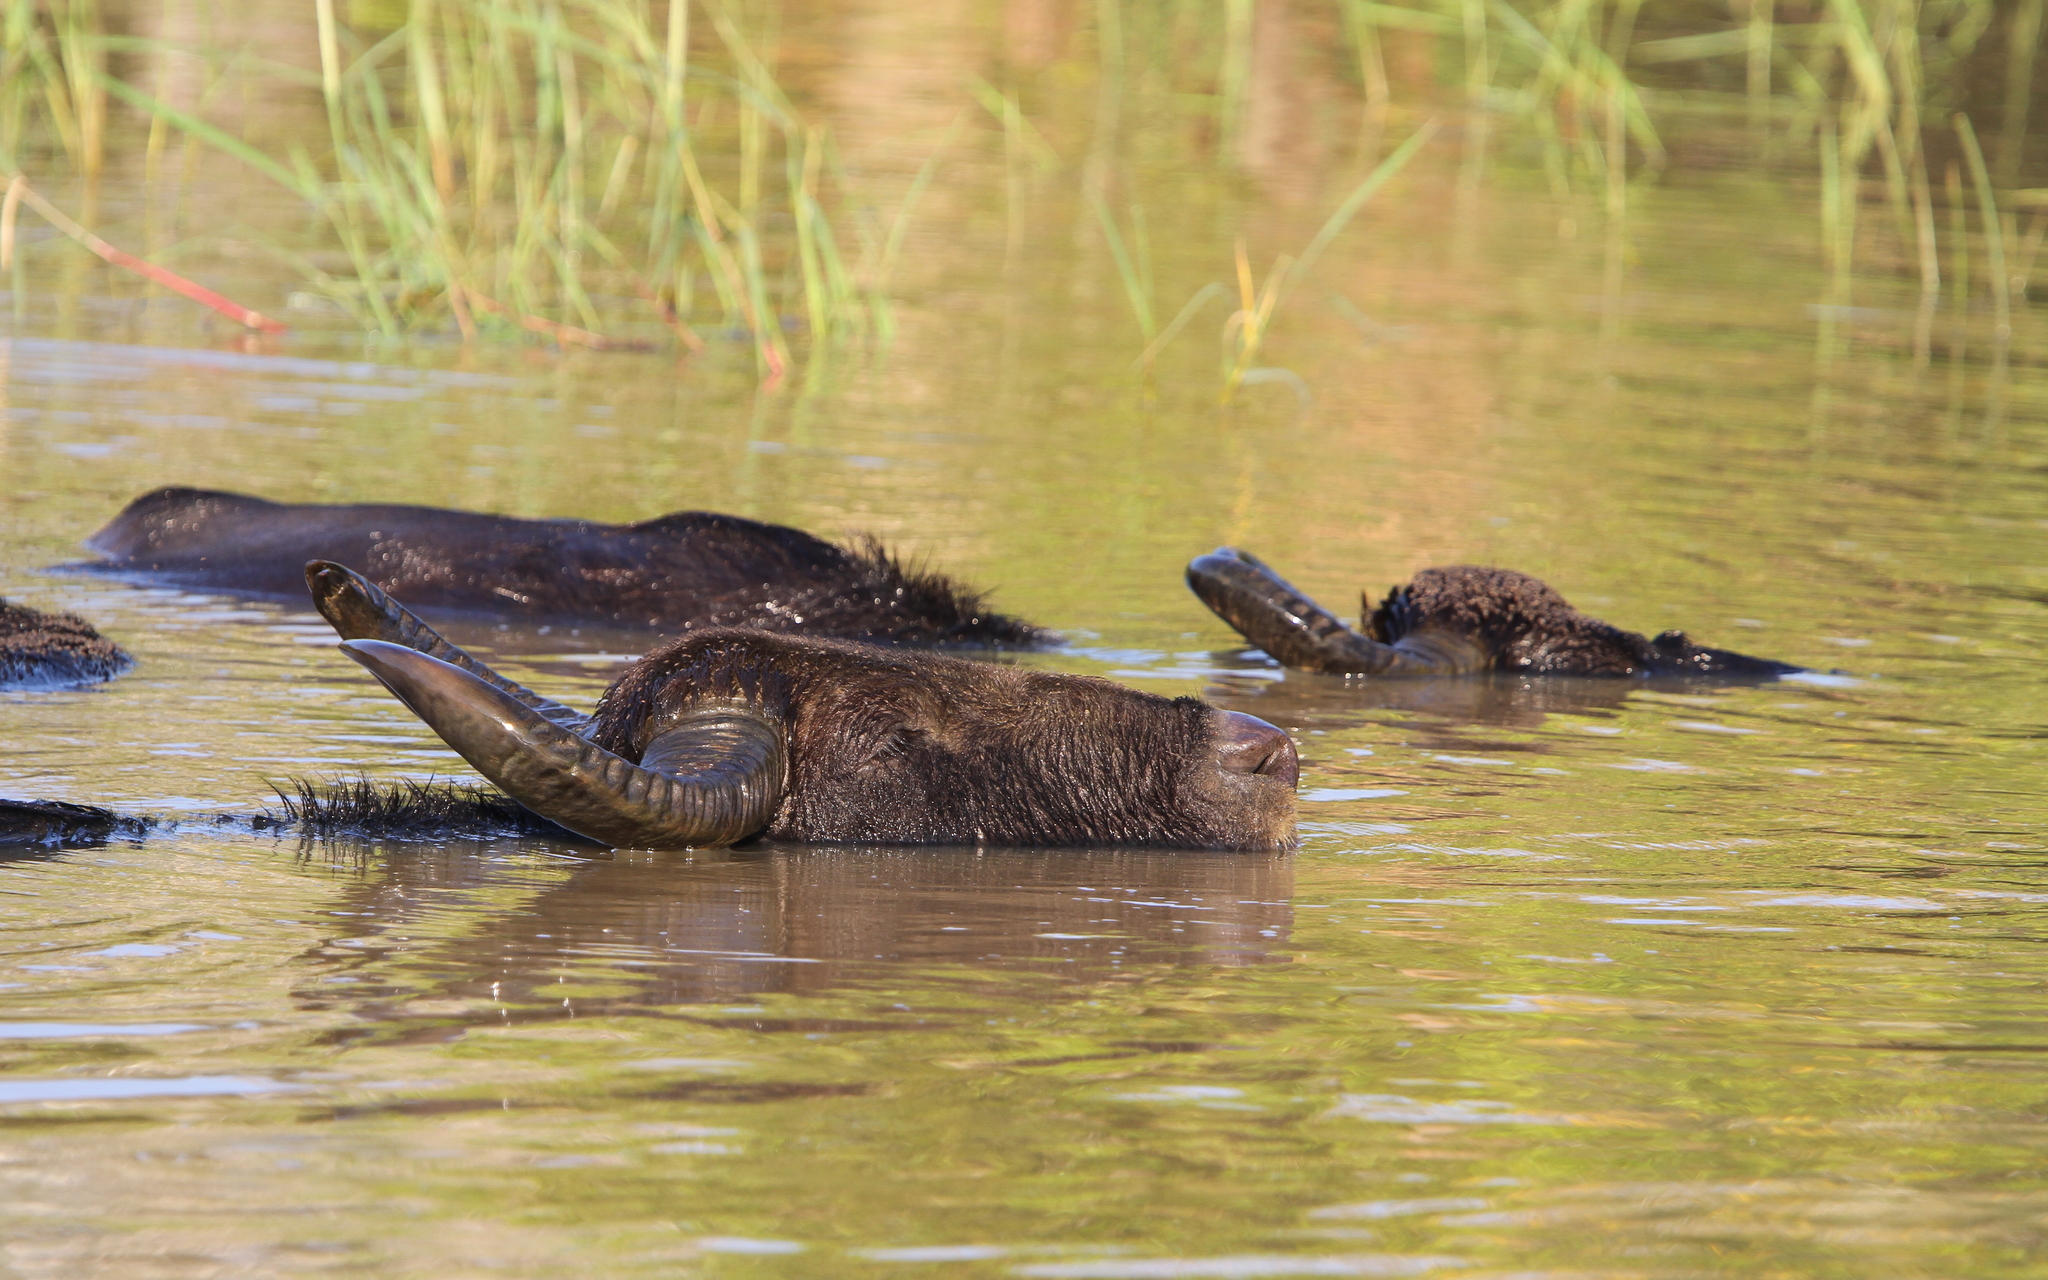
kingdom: Animalia
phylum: Chordata
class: Mammalia
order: Artiodactyla
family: Bovidae
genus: Bubalus
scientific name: Bubalus bubalis
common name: Water buffalo
